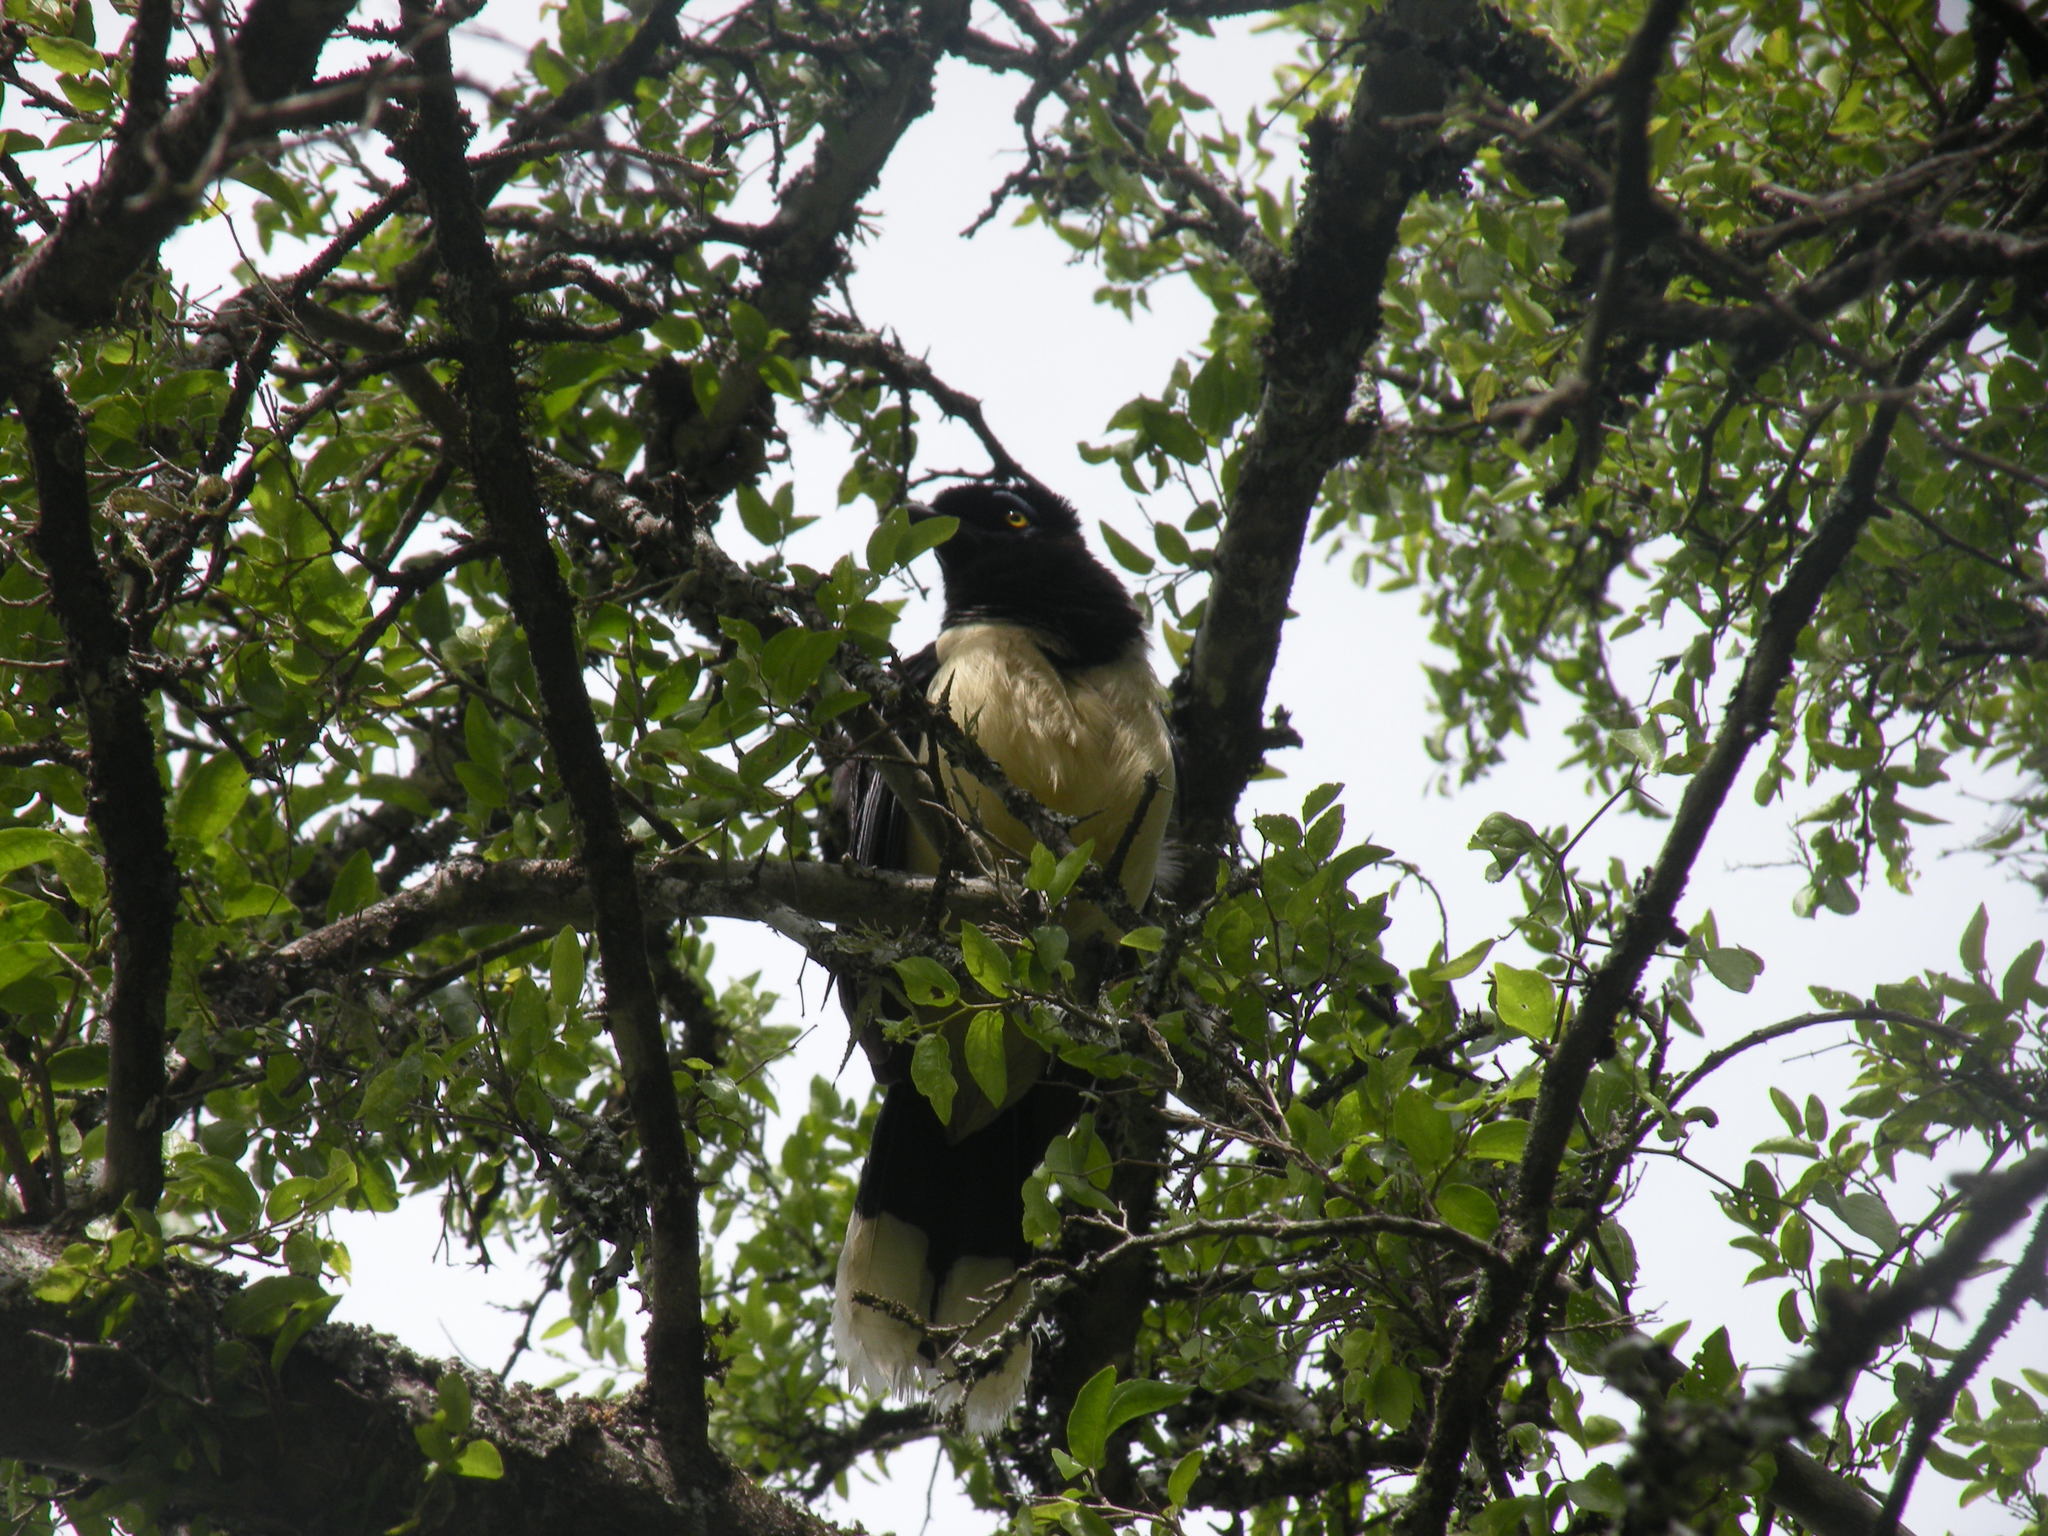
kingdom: Animalia
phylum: Chordata
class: Aves
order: Passeriformes
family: Corvidae
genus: Cyanocorax
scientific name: Cyanocorax chrysops
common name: Plush-crested jay
